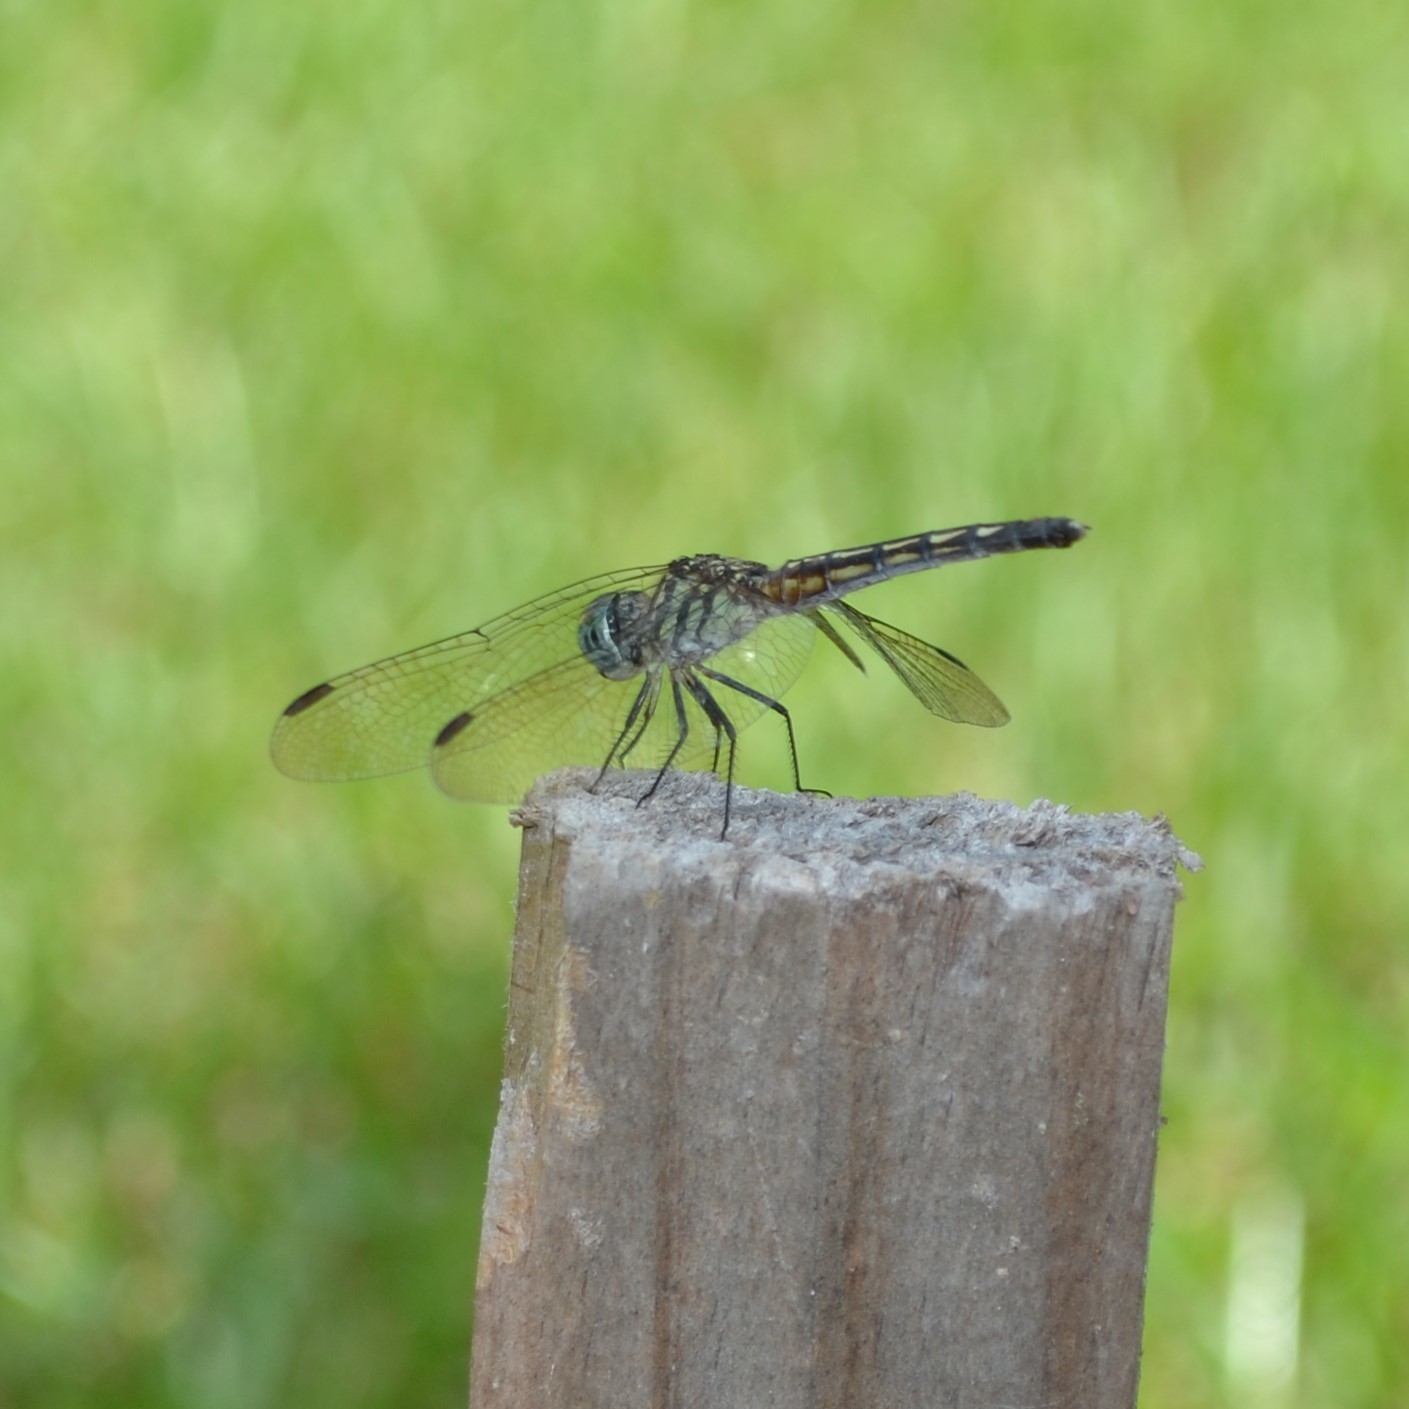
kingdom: Animalia
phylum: Arthropoda
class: Insecta
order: Odonata
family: Libellulidae
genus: Pachydiplax
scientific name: Pachydiplax longipennis
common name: Blue dasher
